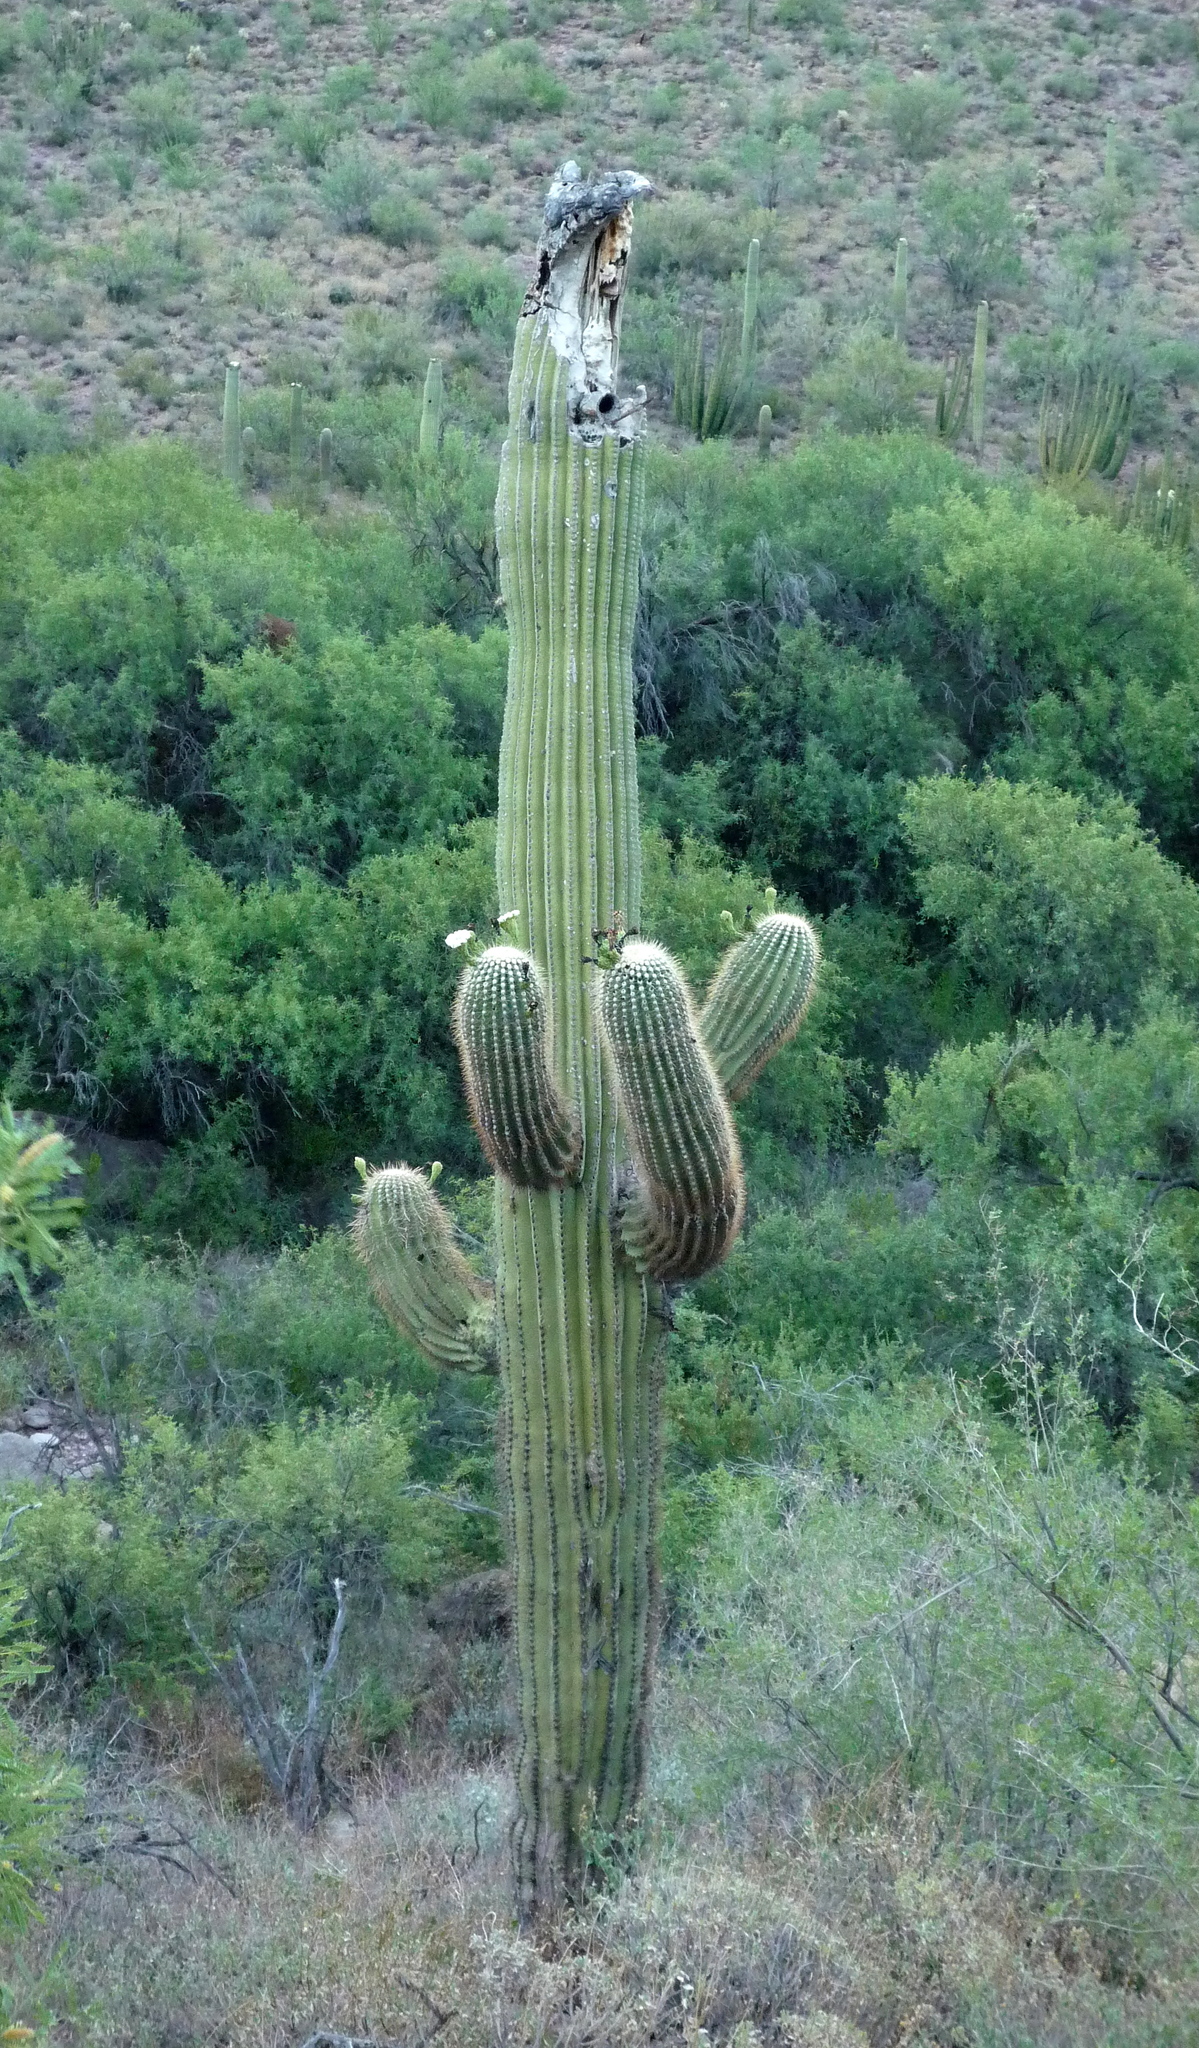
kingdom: Plantae
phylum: Tracheophyta
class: Magnoliopsida
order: Caryophyllales
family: Cactaceae
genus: Carnegiea
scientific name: Carnegiea gigantea
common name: Saguaro
